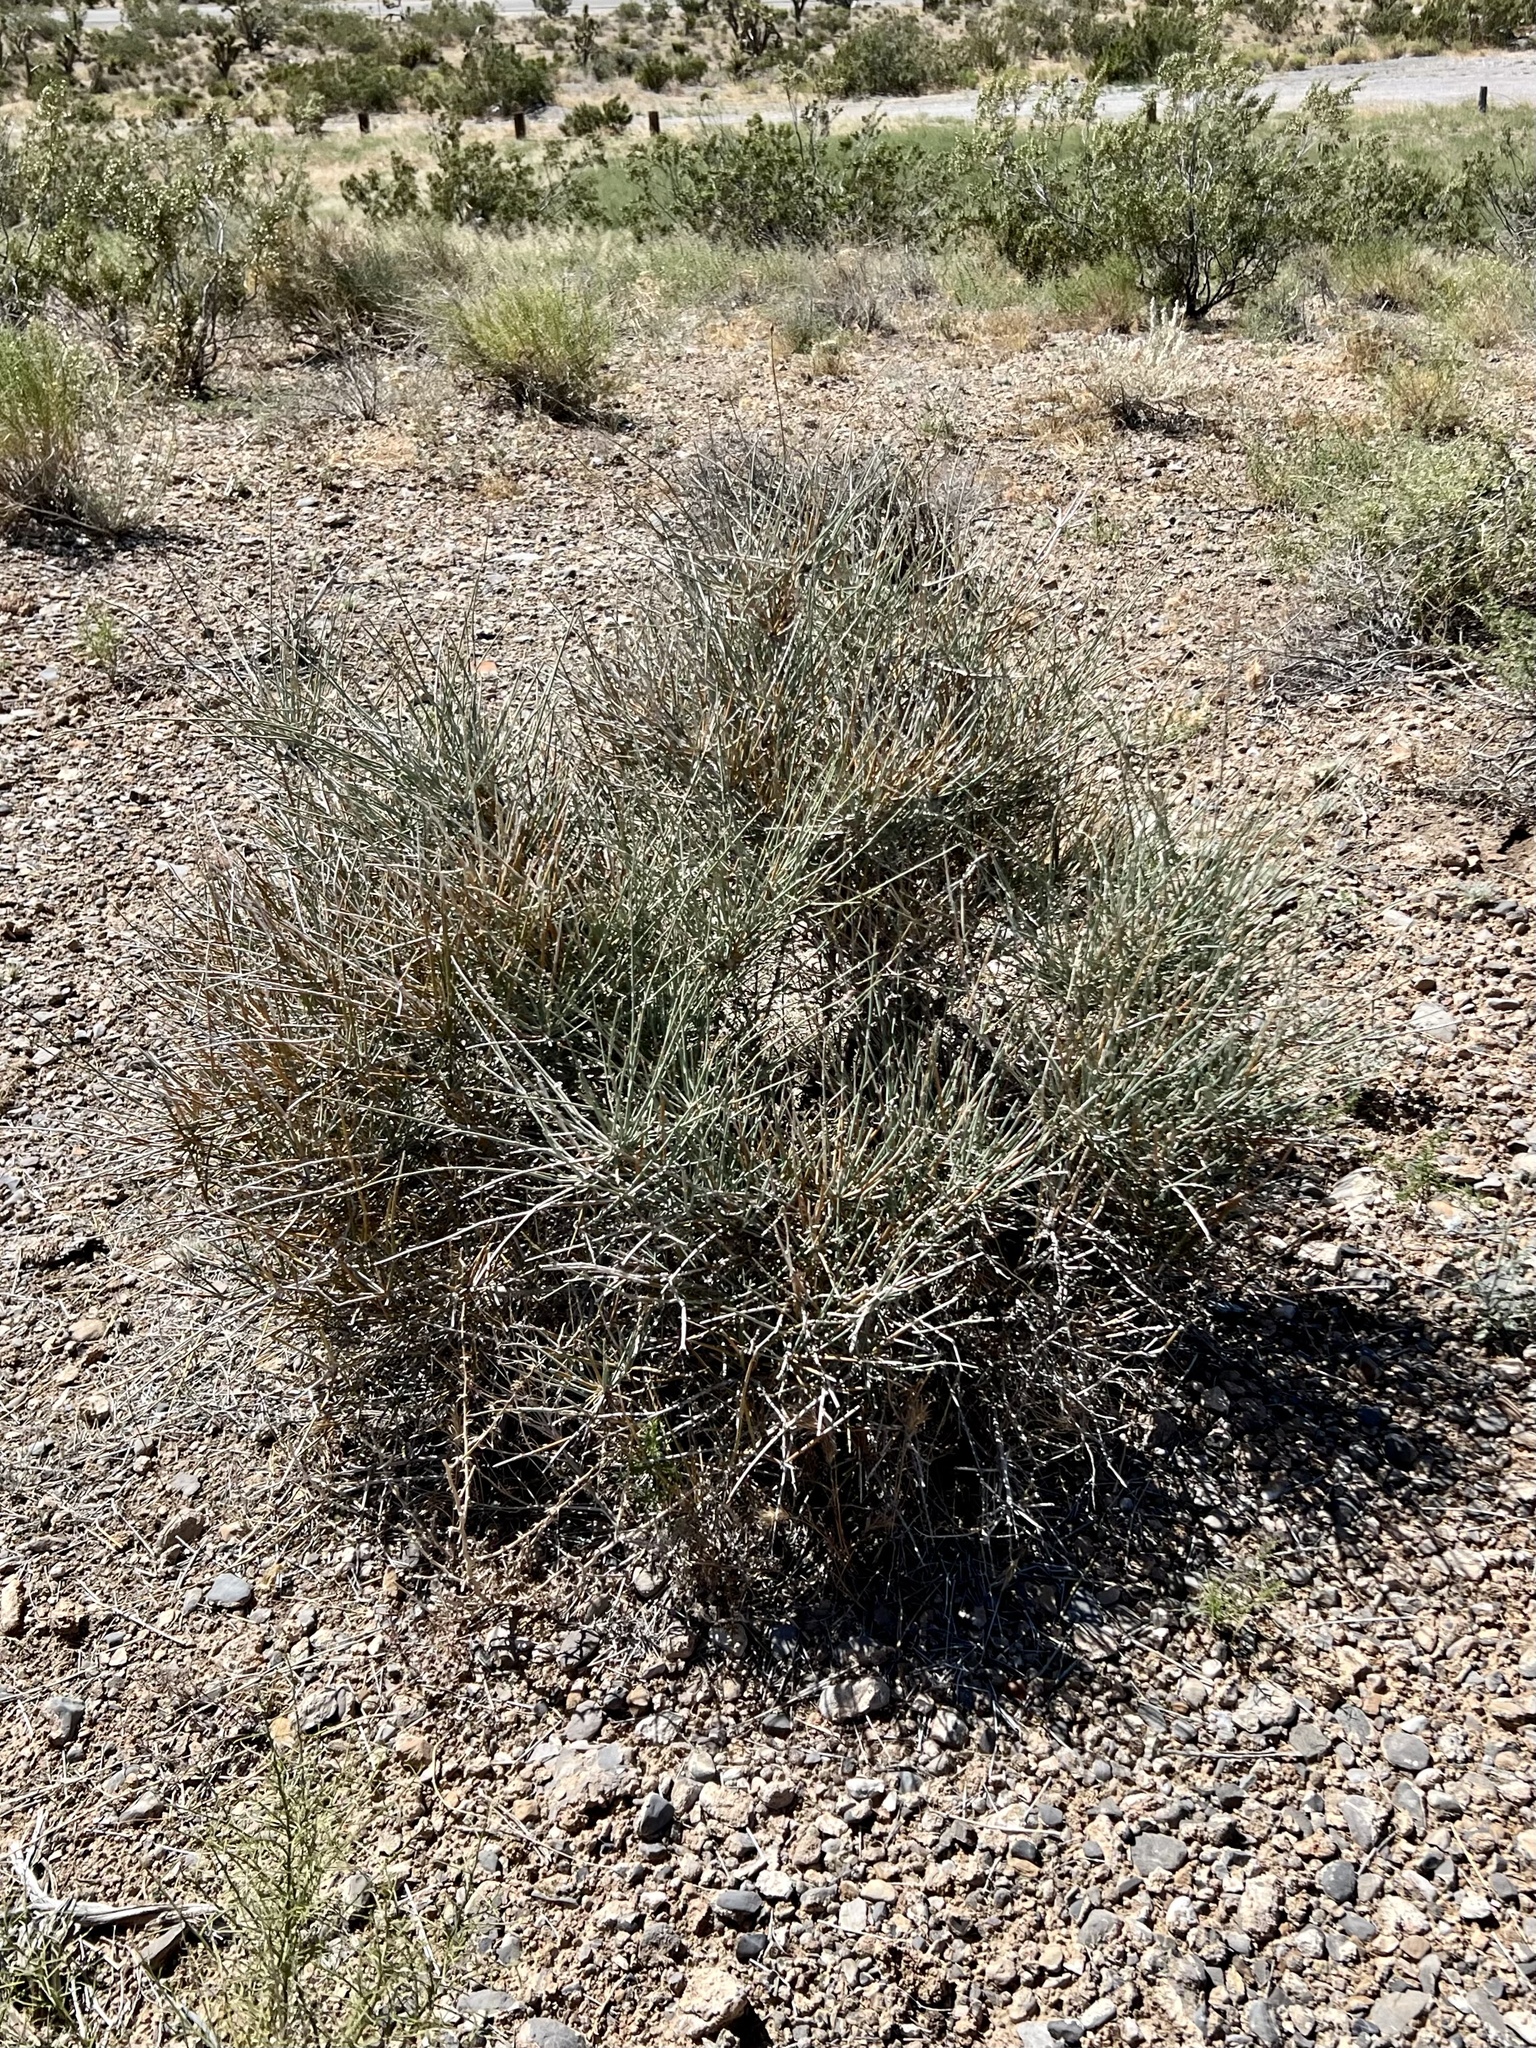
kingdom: Plantae
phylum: Tracheophyta
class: Gnetopsida
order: Ephedrales
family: Ephedraceae
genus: Ephedra
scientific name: Ephedra nevadensis
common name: Gray ephedra
